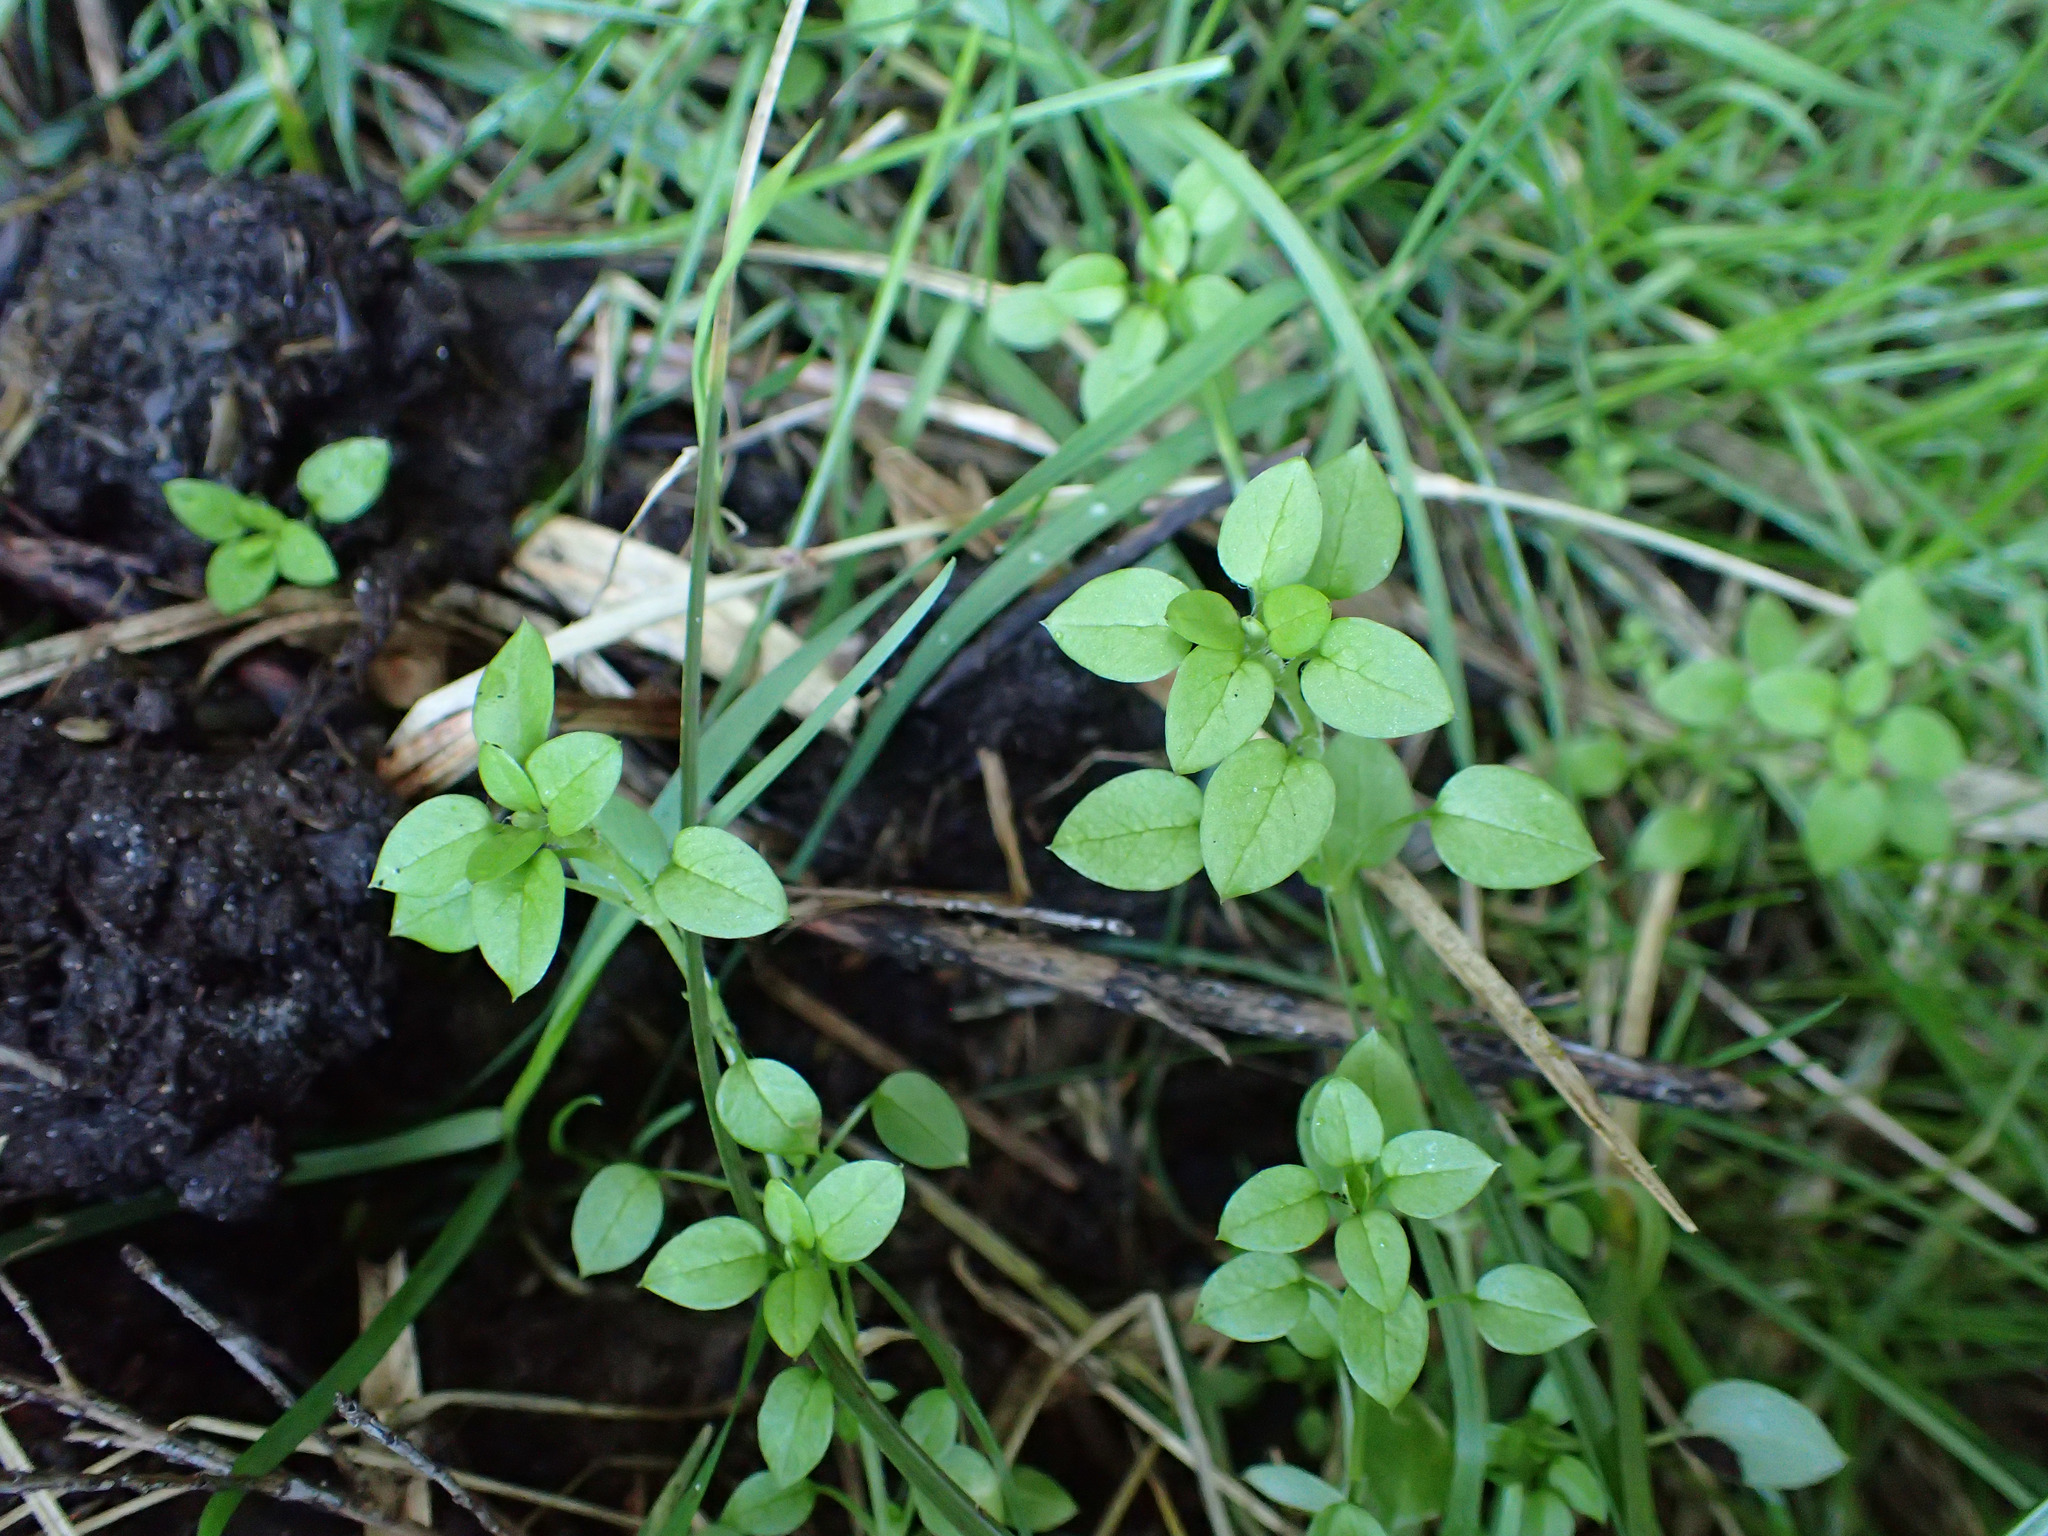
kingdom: Plantae
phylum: Tracheophyta
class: Magnoliopsida
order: Caryophyllales
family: Caryophyllaceae
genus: Stellaria
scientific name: Stellaria media
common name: Common chickweed
